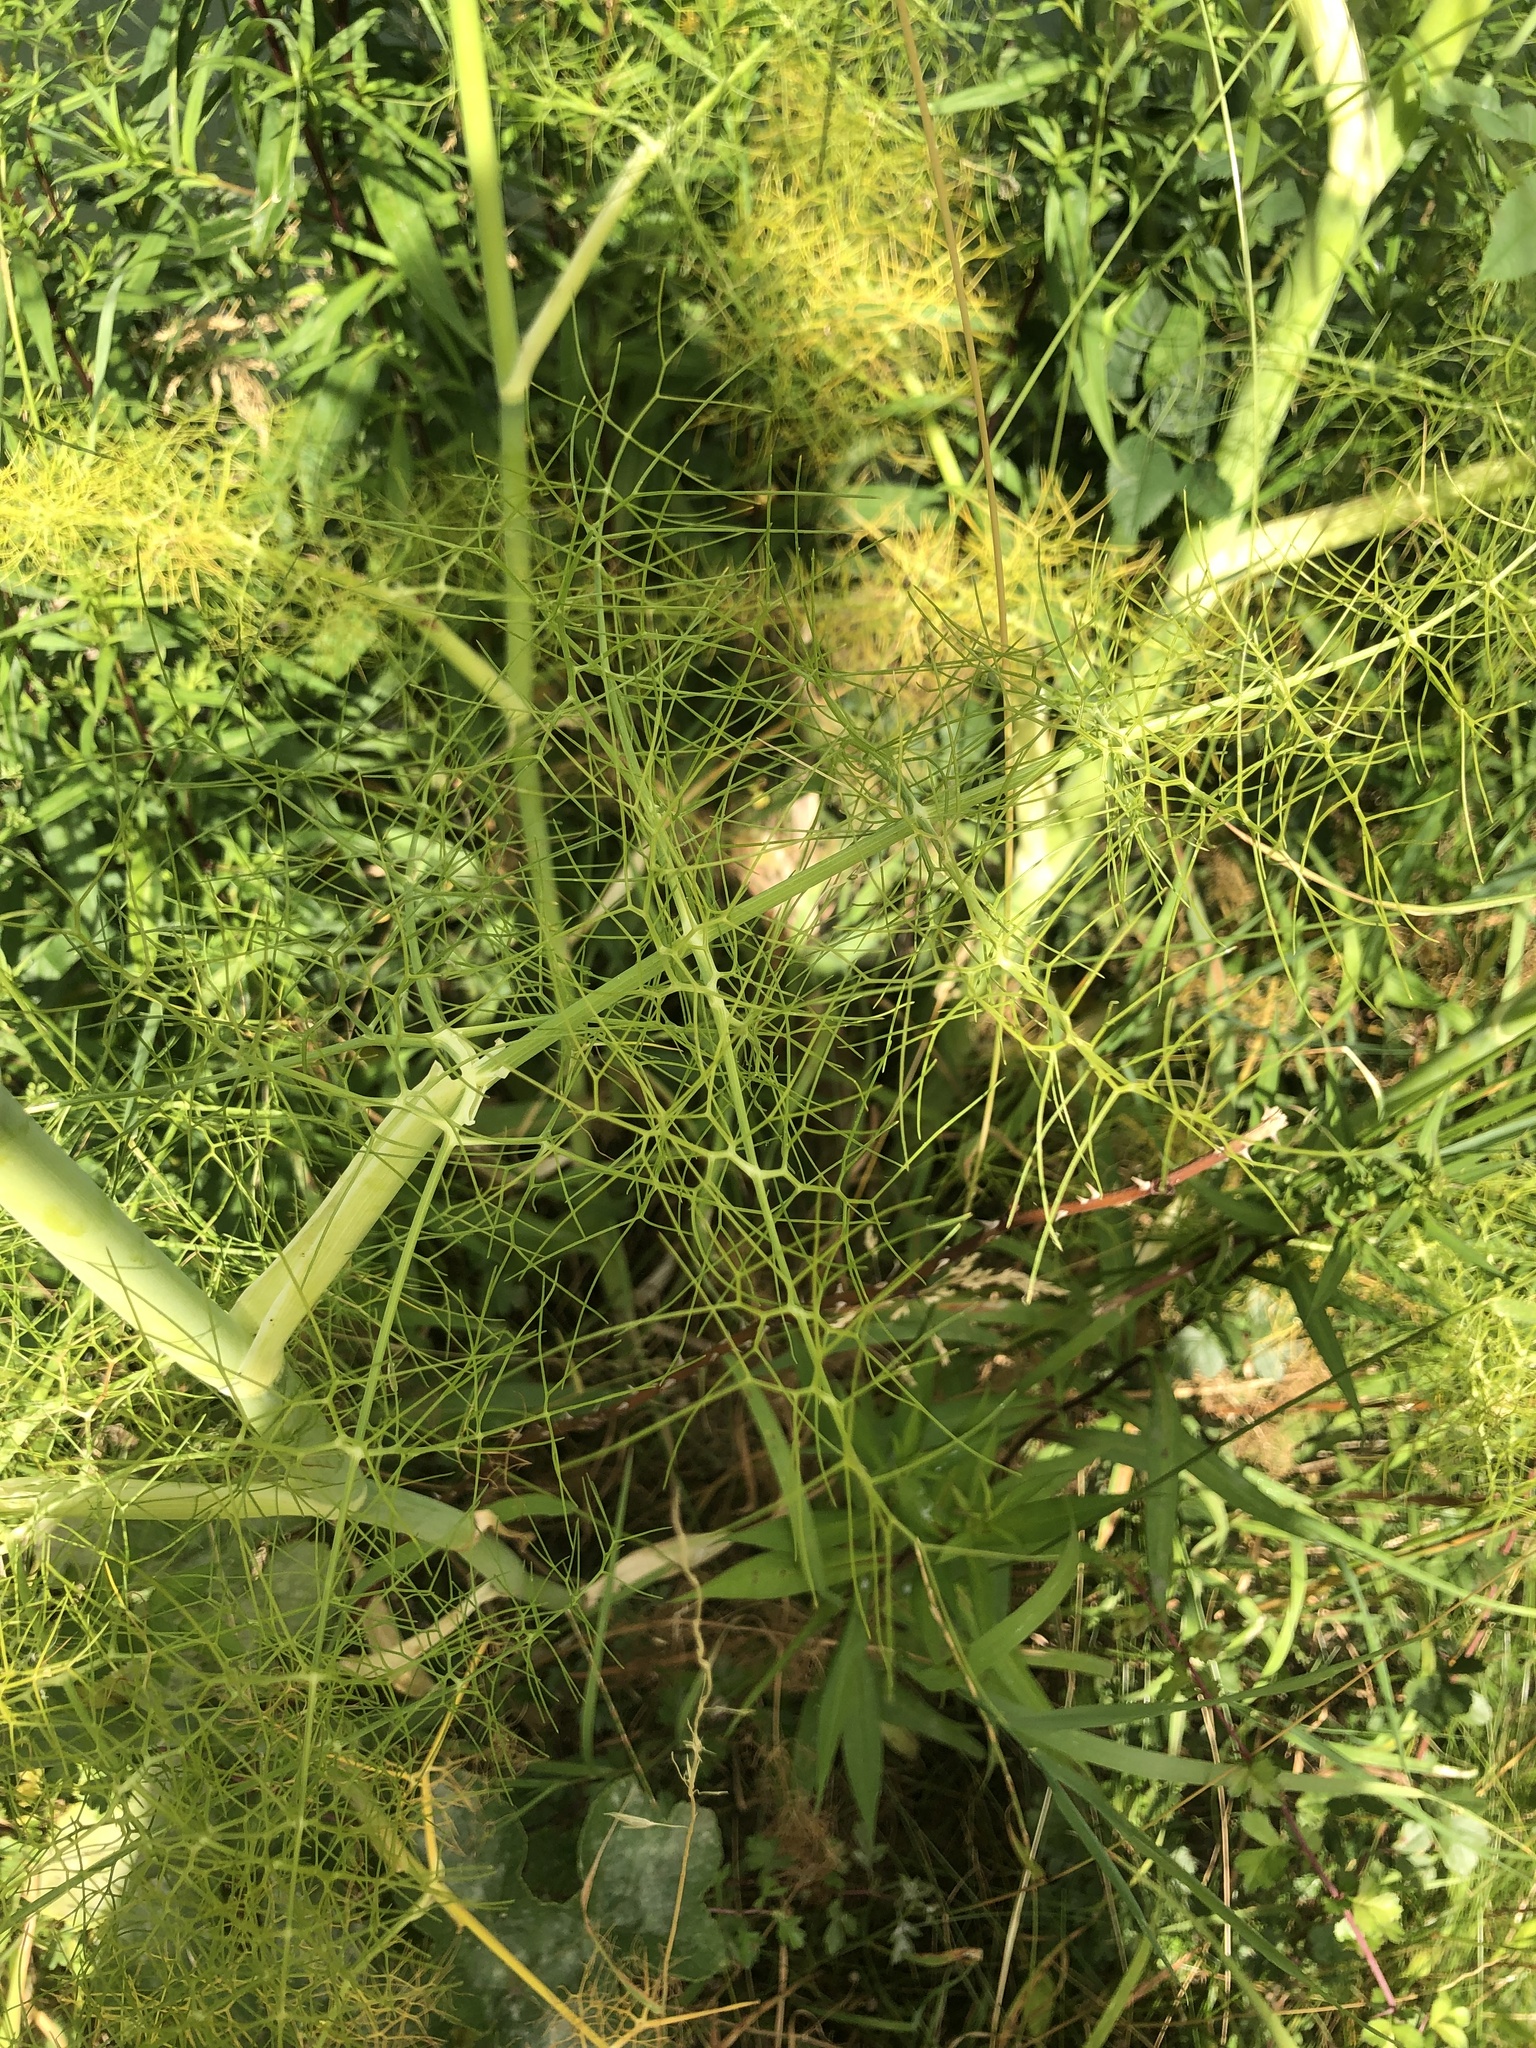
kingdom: Plantae
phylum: Tracheophyta
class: Magnoliopsida
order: Apiales
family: Apiaceae
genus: Foeniculum
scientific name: Foeniculum vulgare
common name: Fennel
